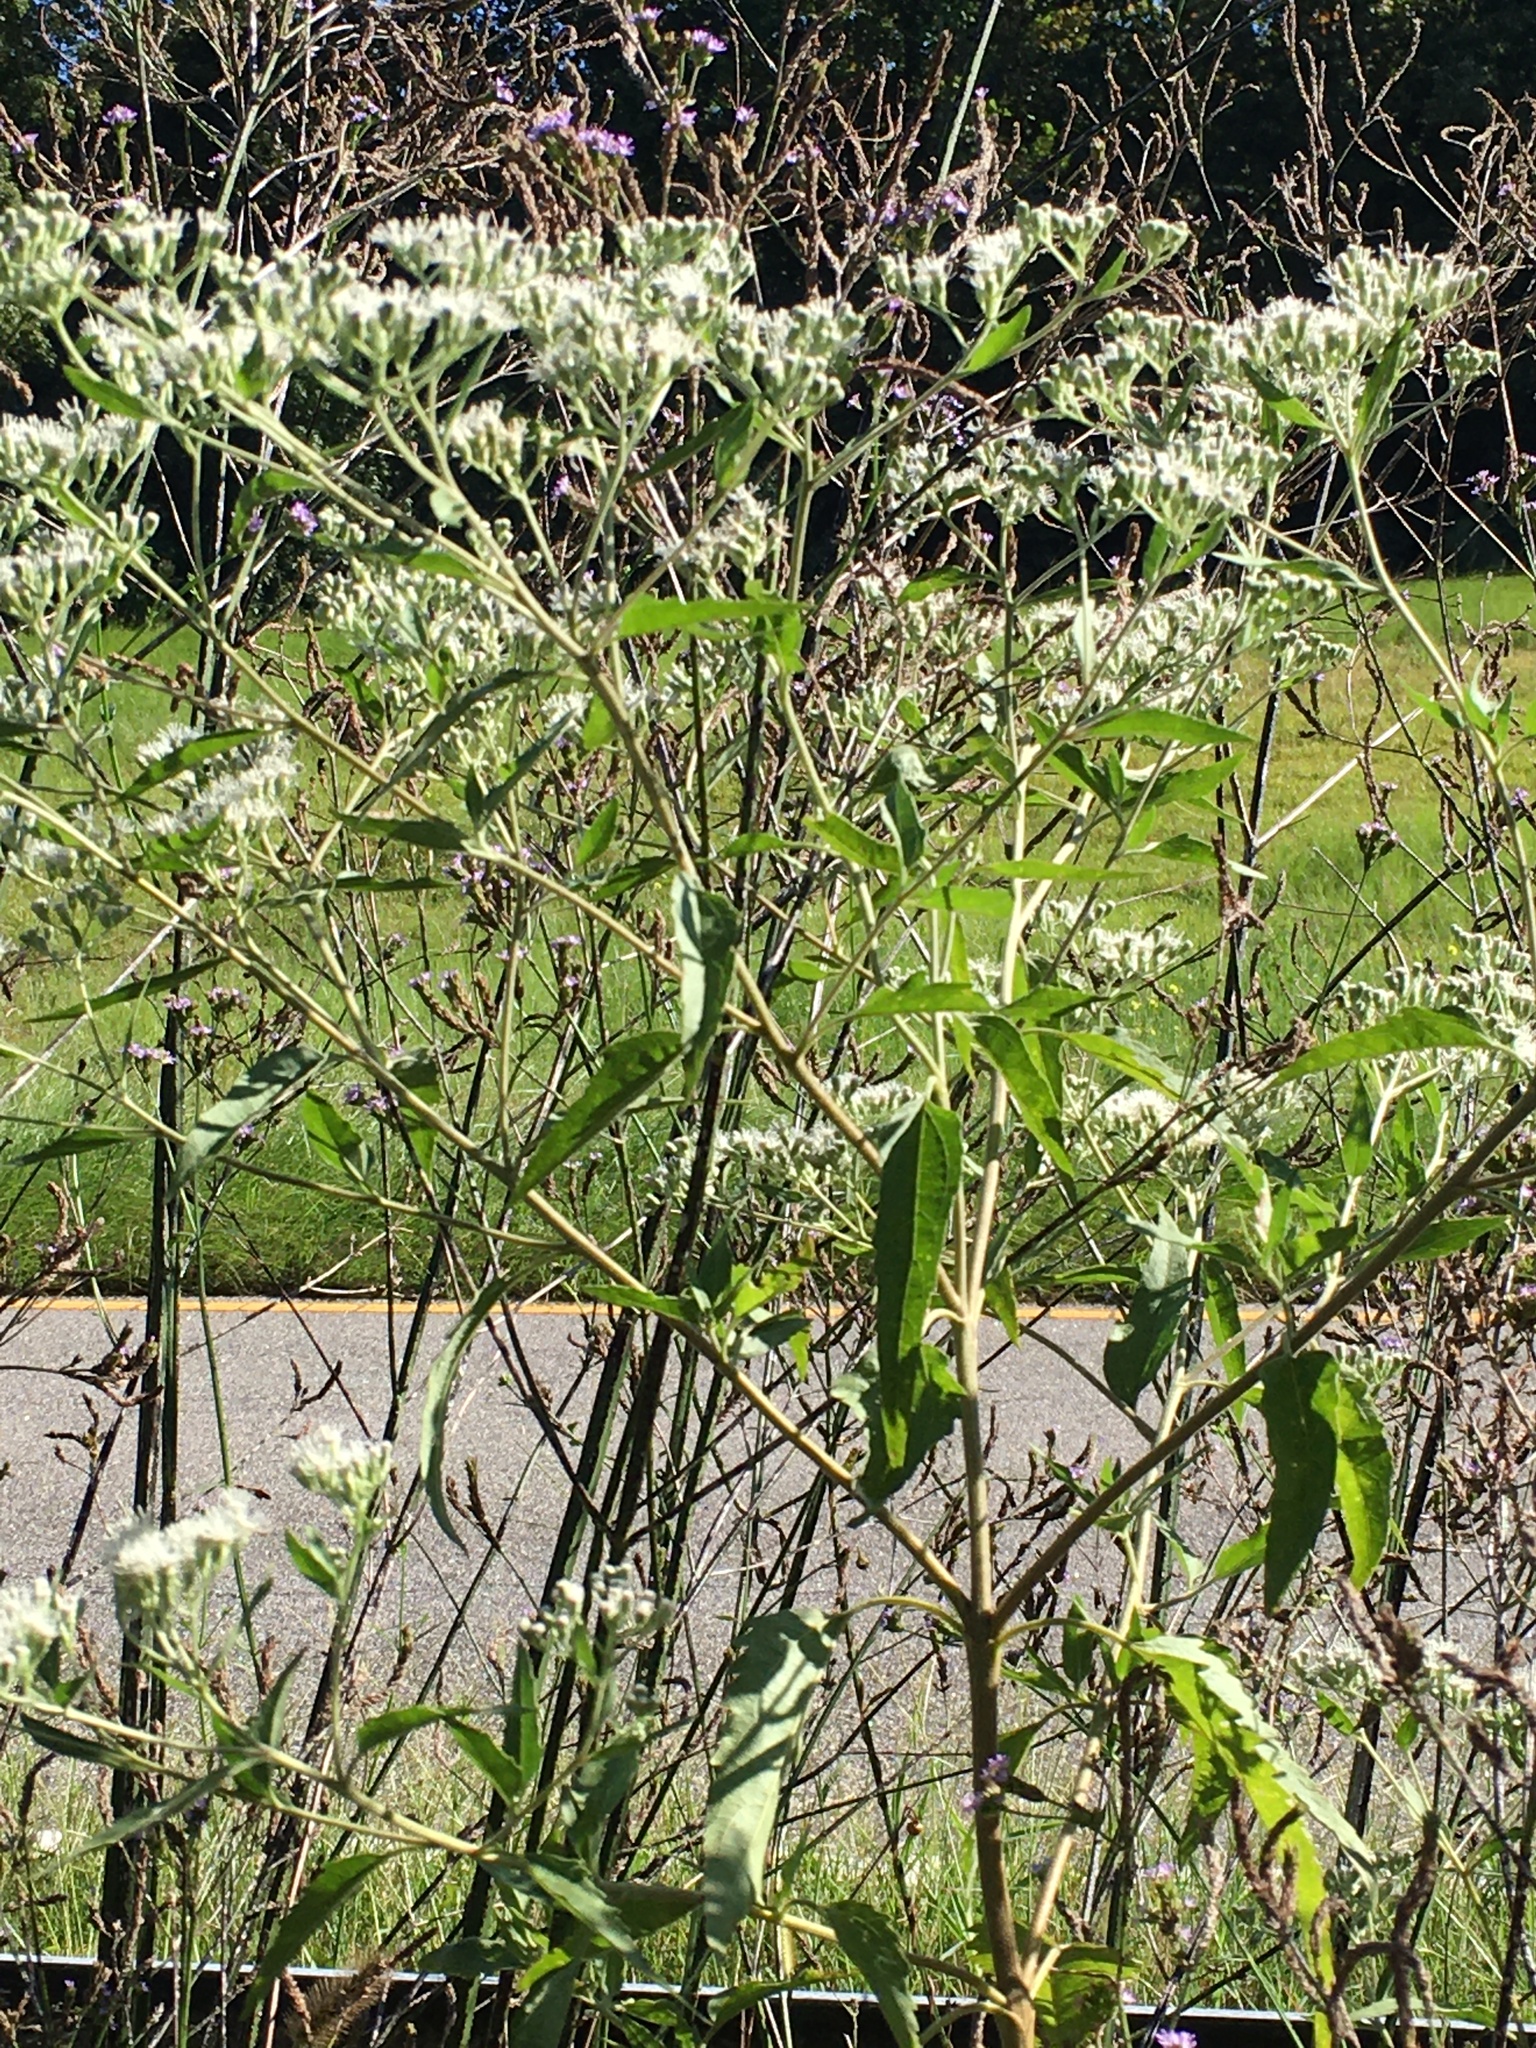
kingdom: Plantae
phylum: Tracheophyta
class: Magnoliopsida
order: Asterales
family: Asteraceae
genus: Eupatorium
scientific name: Eupatorium serotinum
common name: Late boneset
